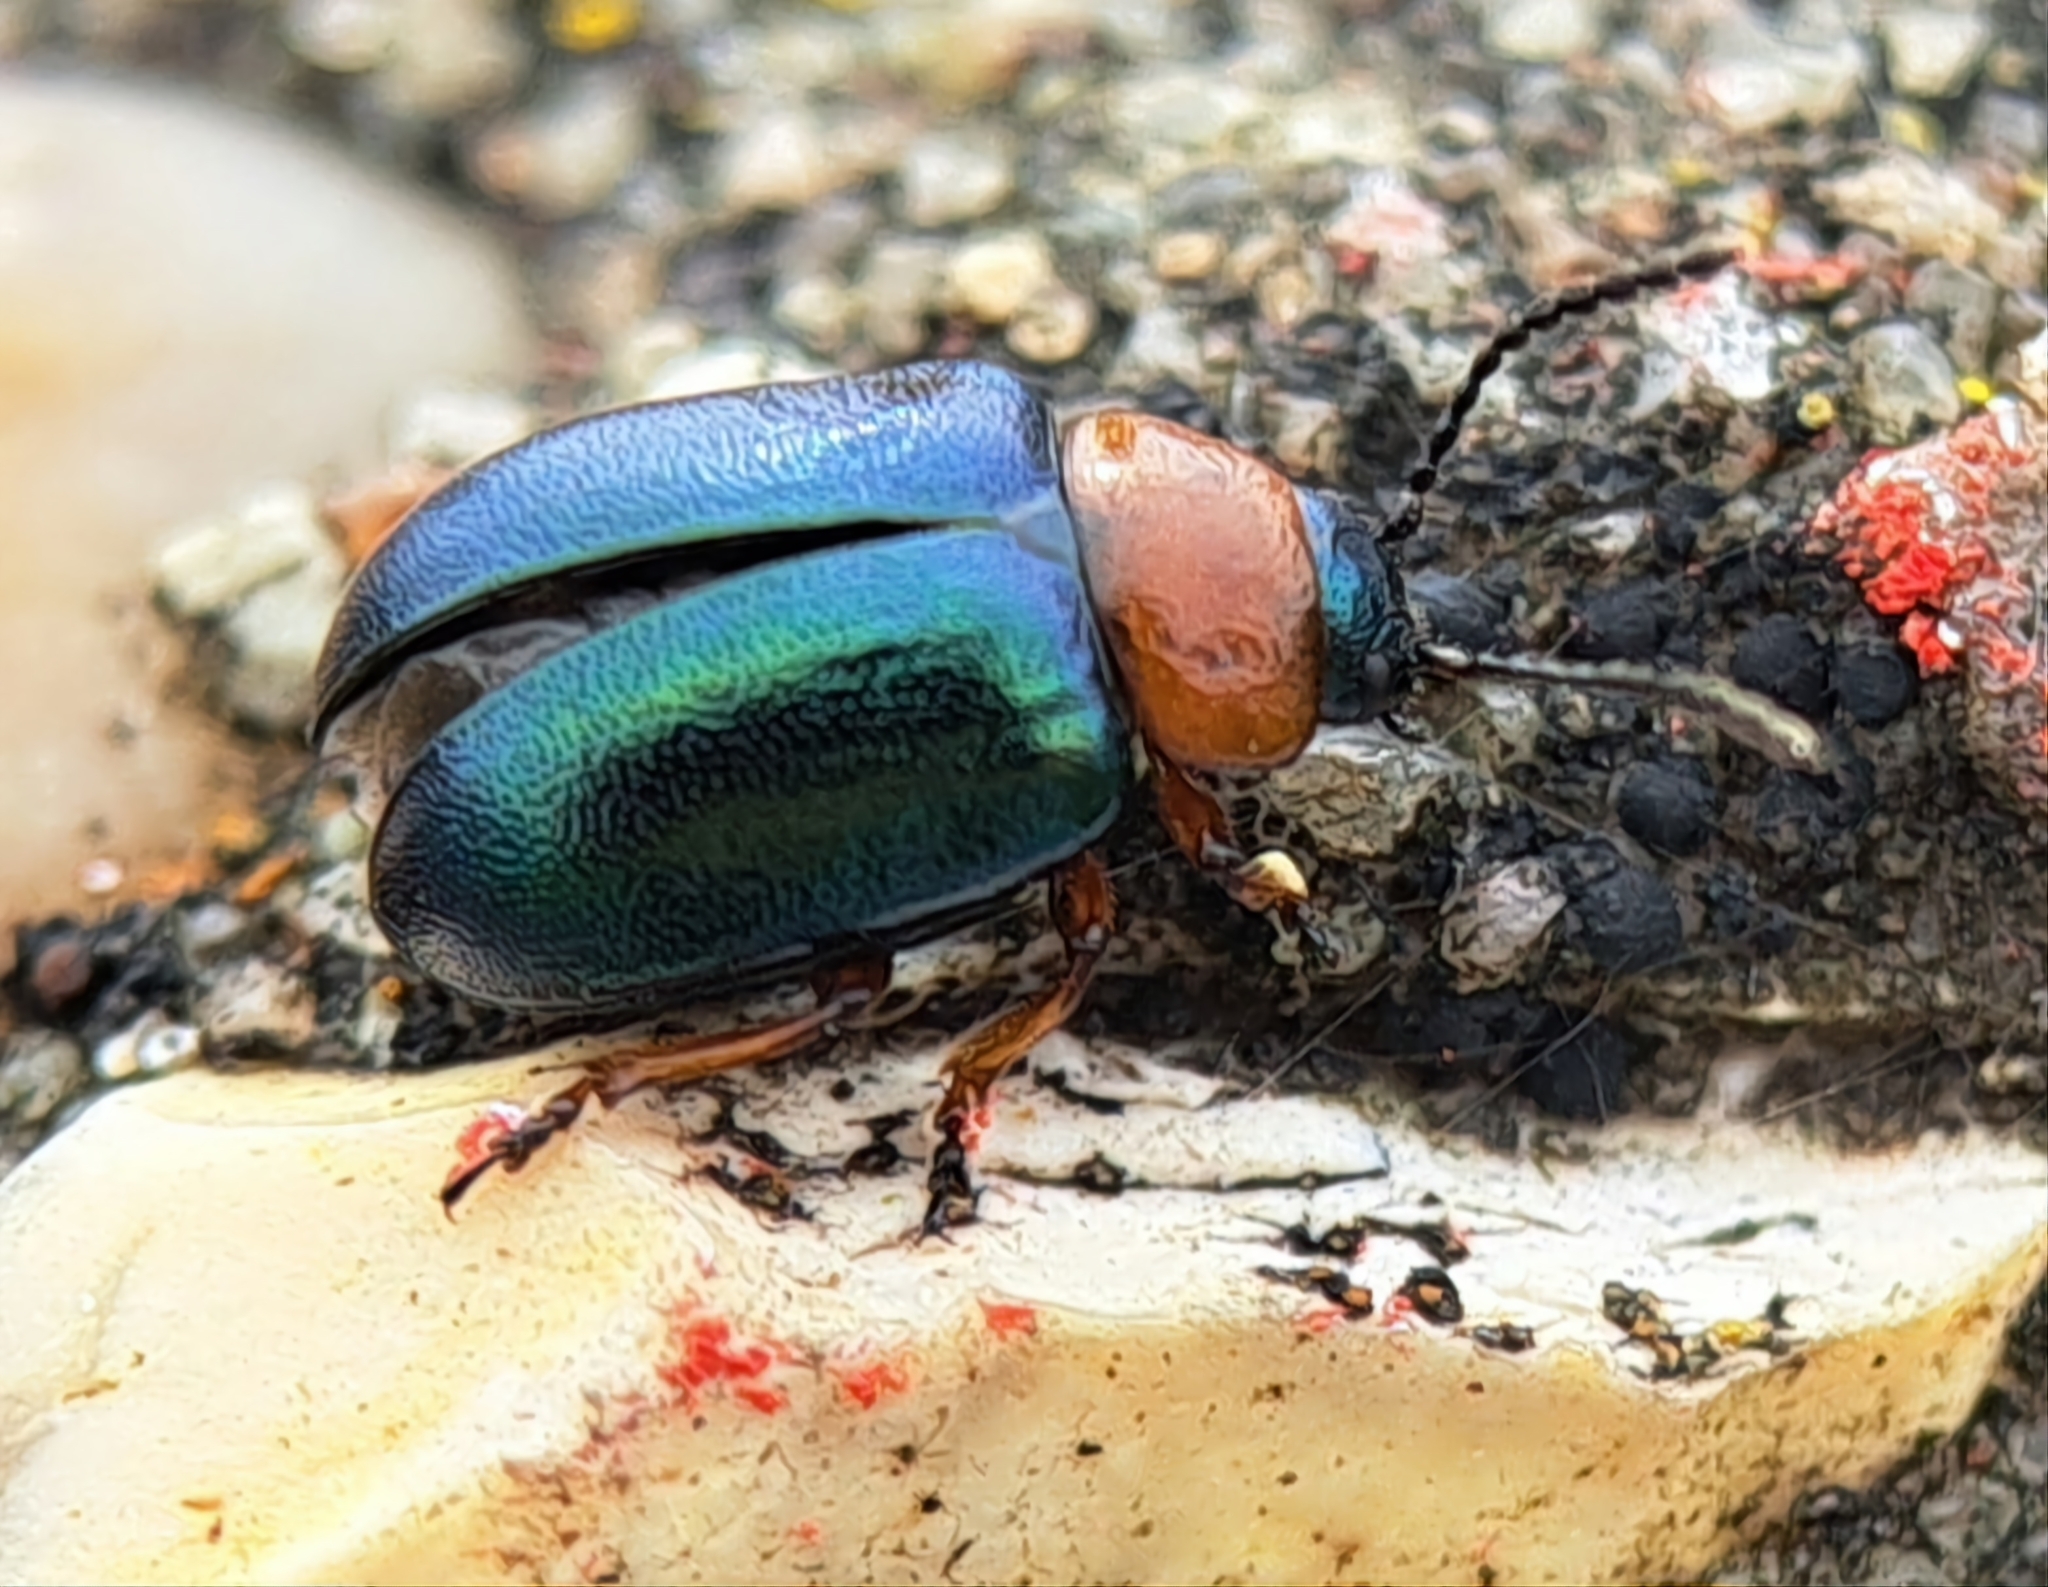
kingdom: Animalia
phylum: Arthropoda
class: Insecta
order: Coleoptera
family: Chrysomelidae
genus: Gastrophysa
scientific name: Gastrophysa polygoni
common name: Knotweed leaf beetle
